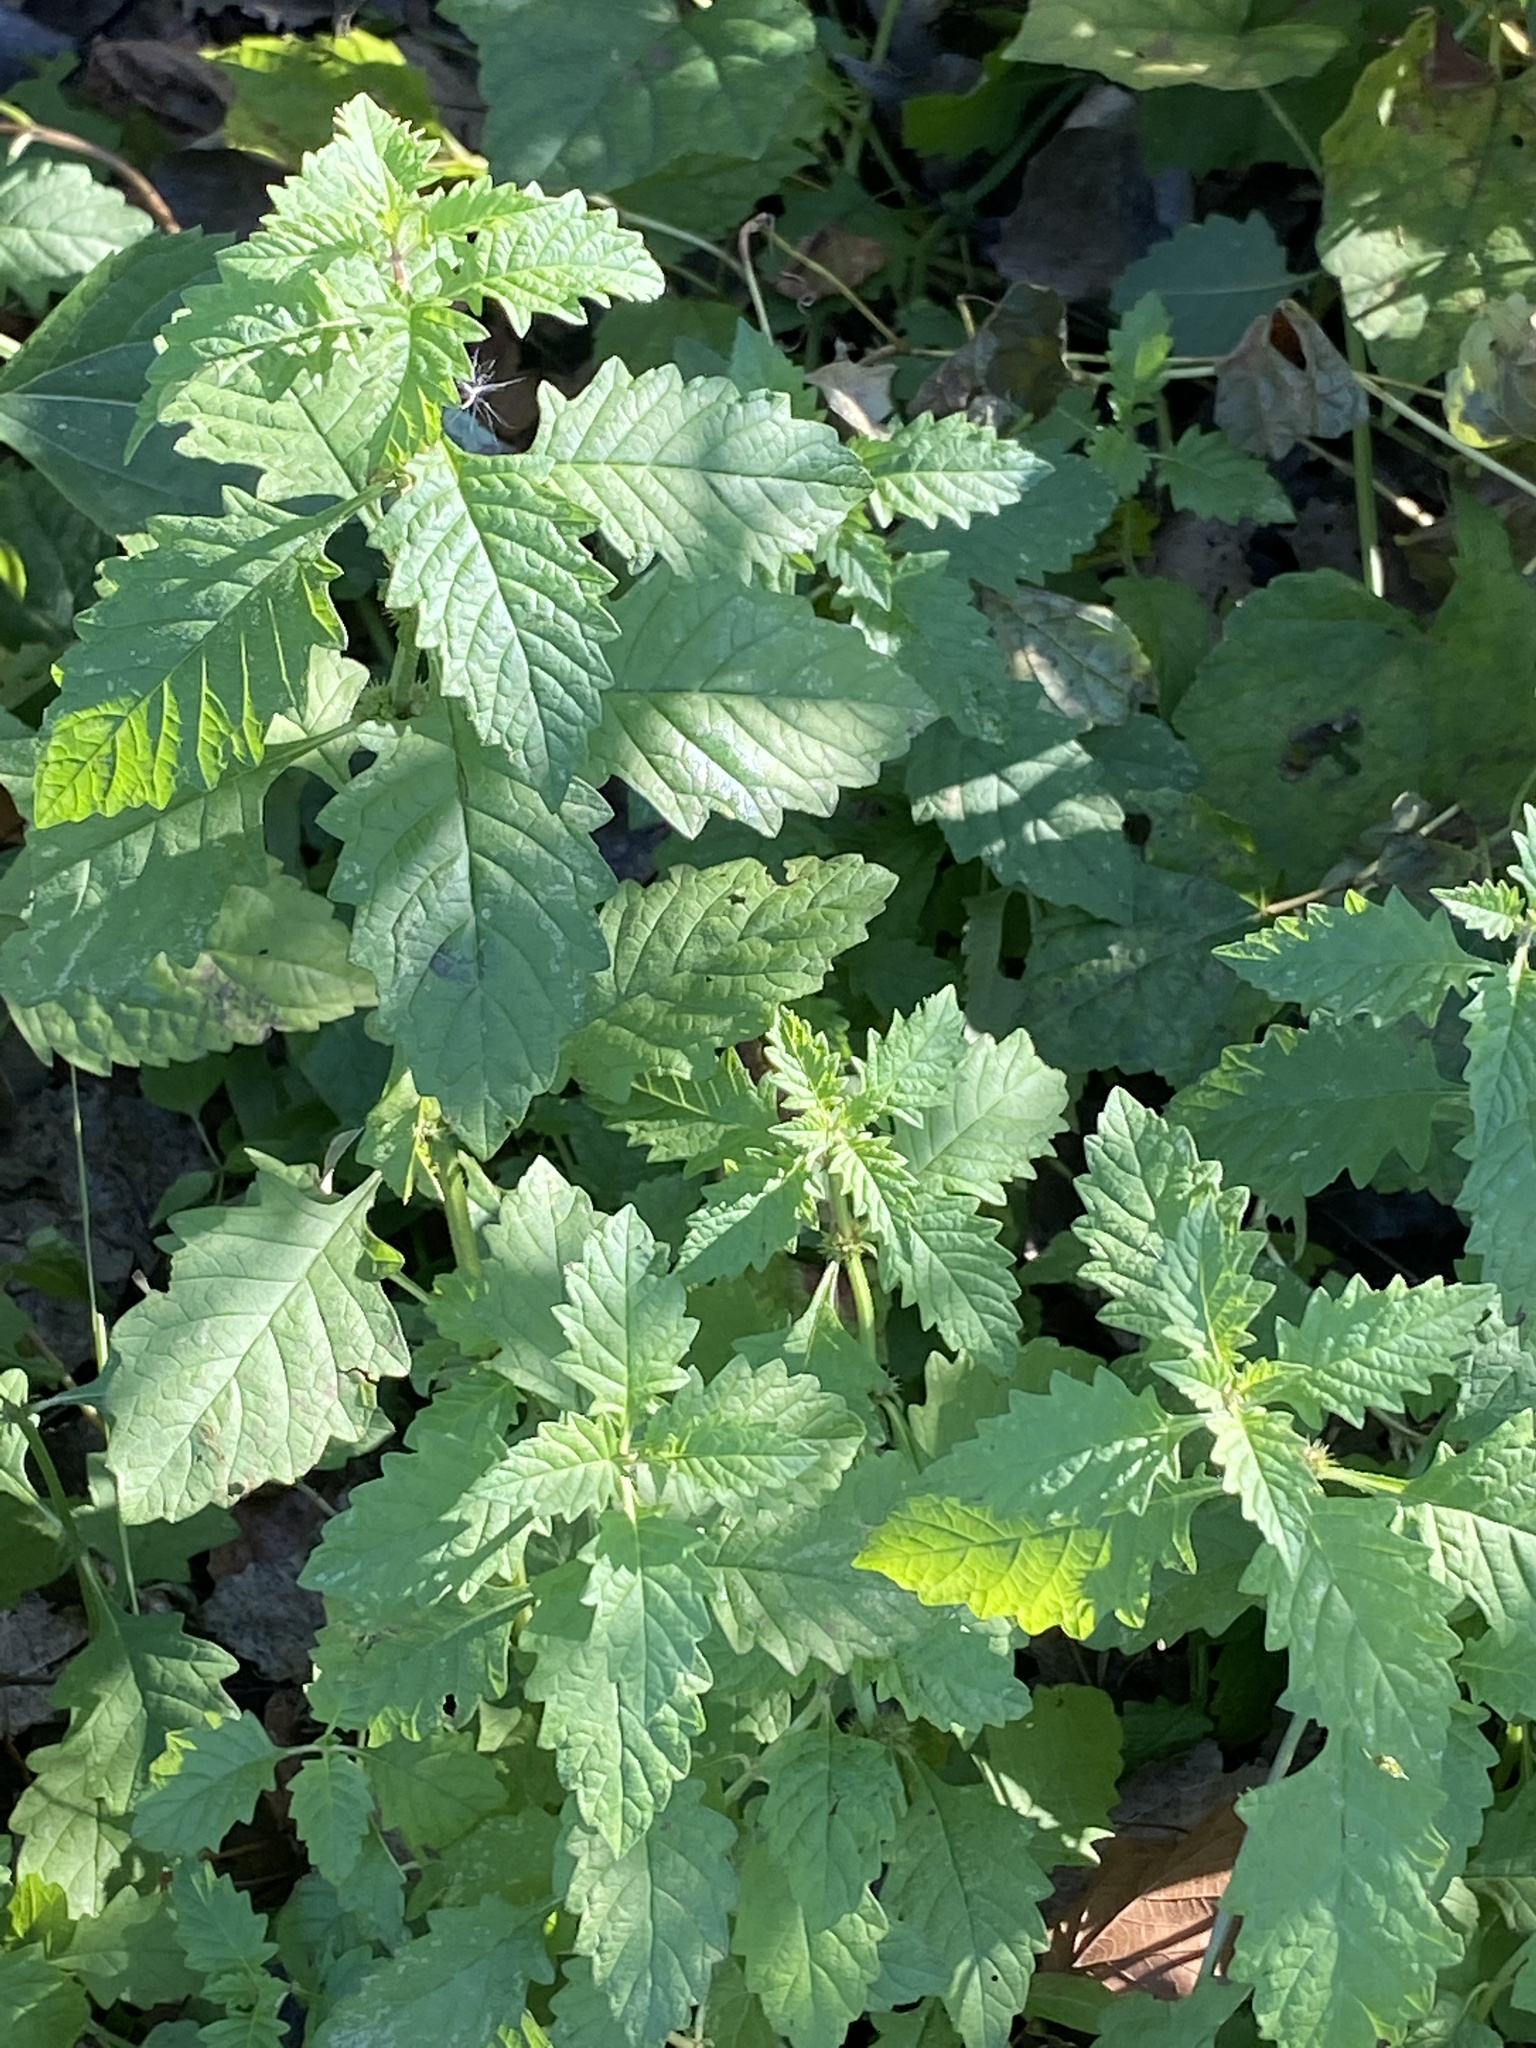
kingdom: Plantae
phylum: Tracheophyta
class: Magnoliopsida
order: Lamiales
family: Lamiaceae
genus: Lycopus
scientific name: Lycopus europaeus
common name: European bugleweed
